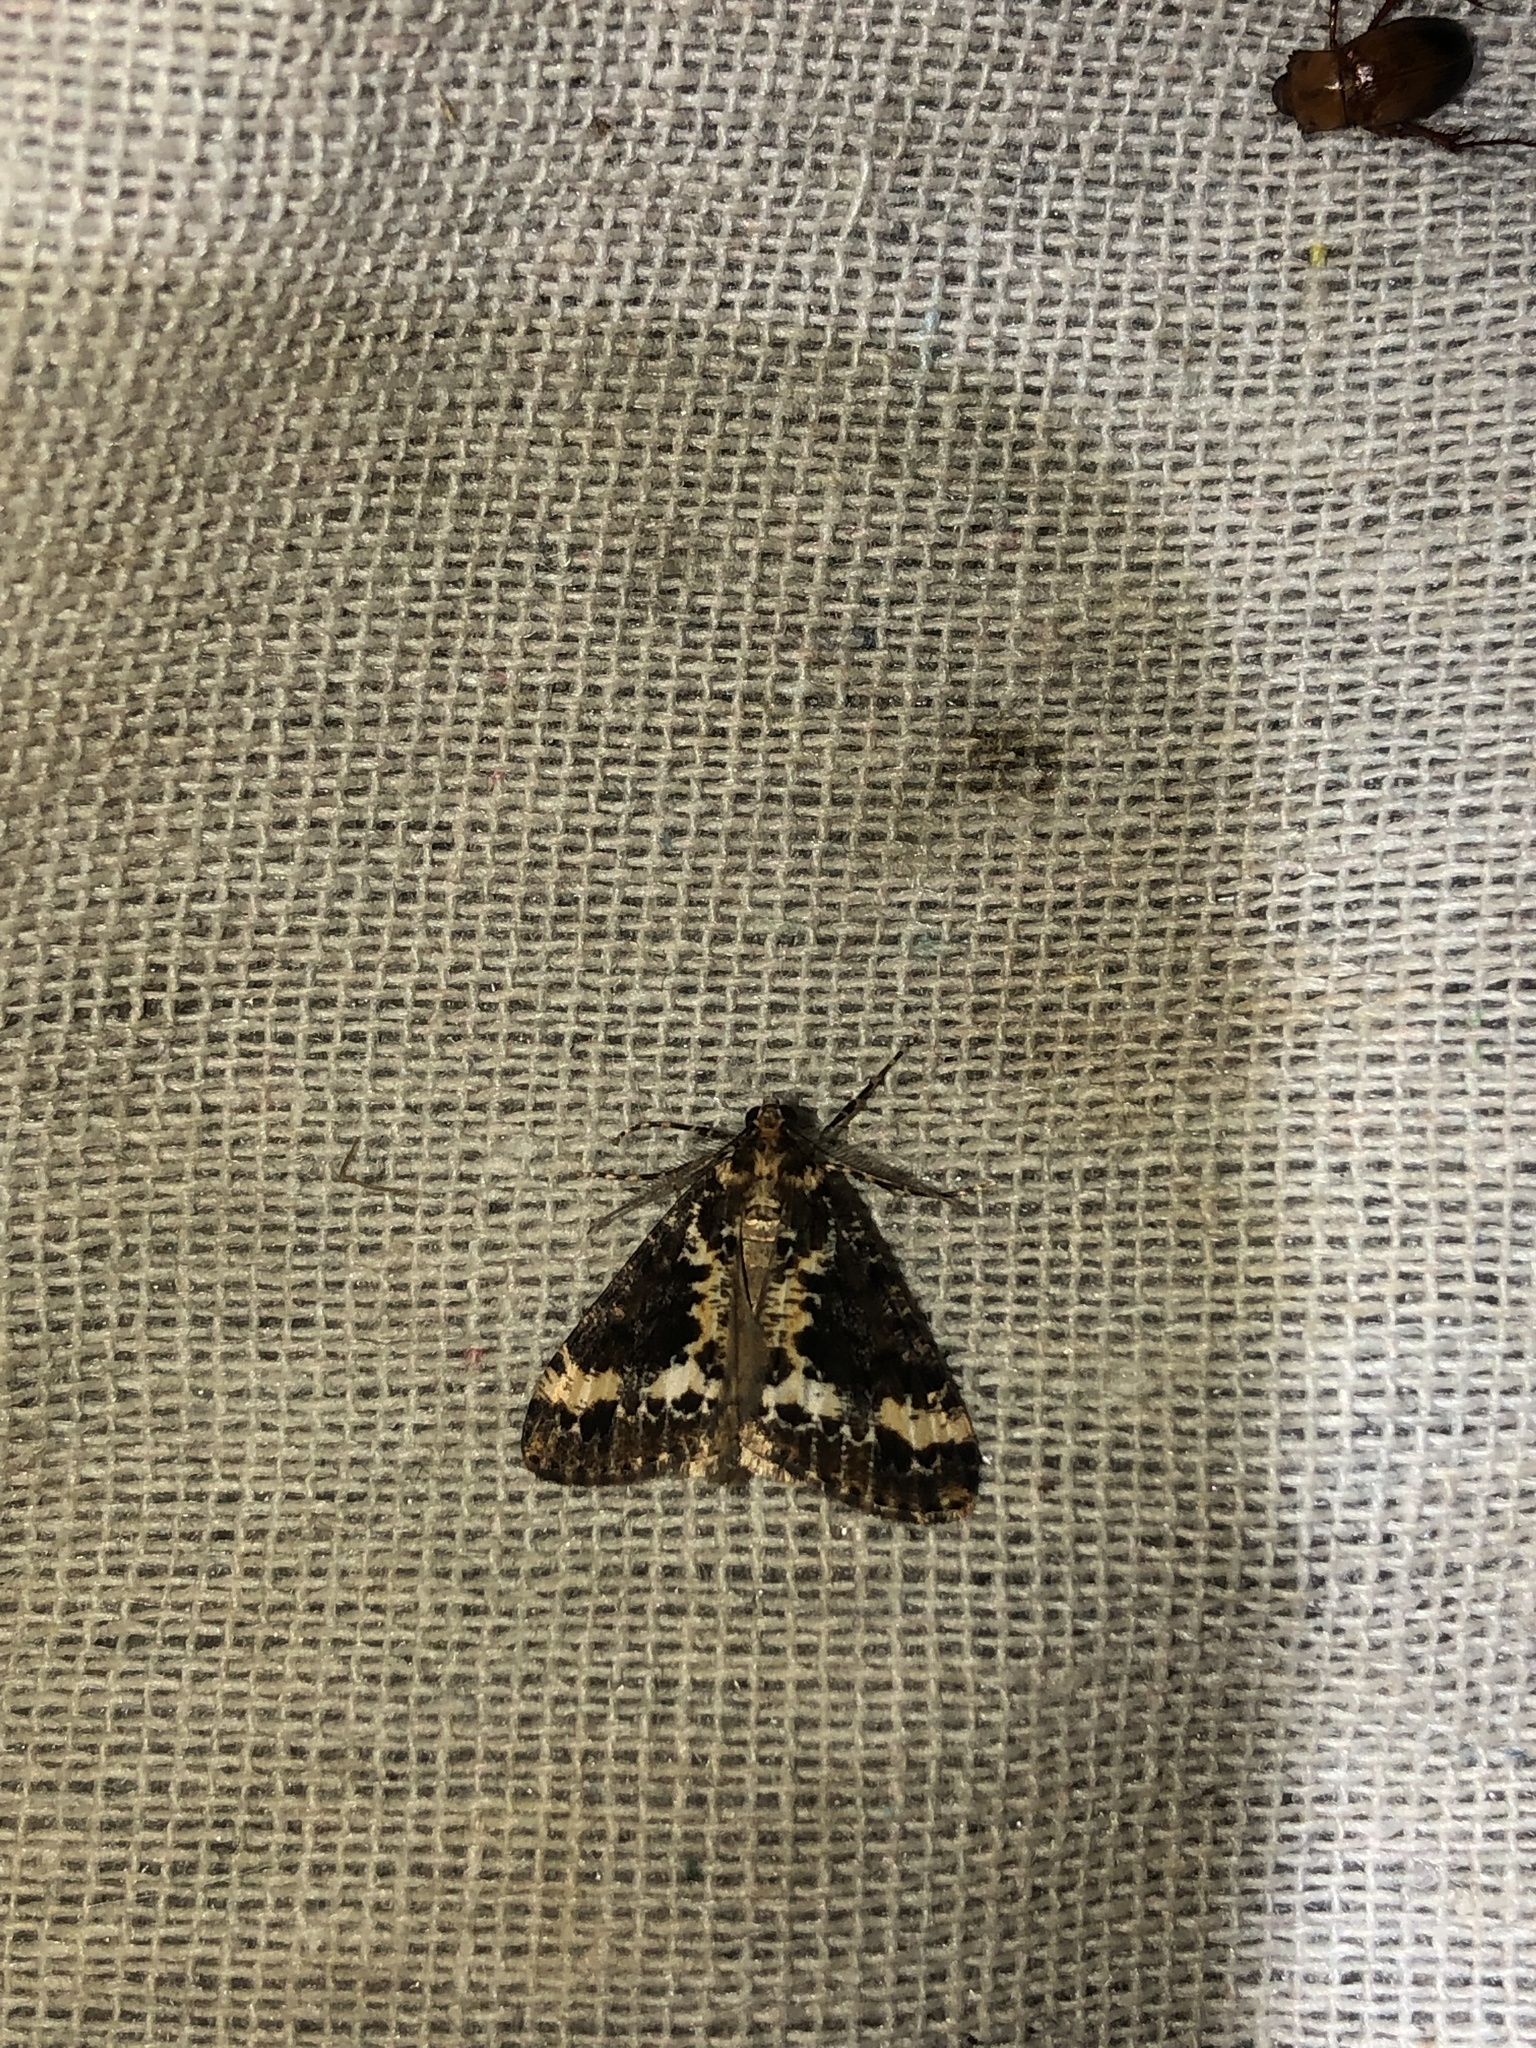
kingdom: Animalia
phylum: Arthropoda
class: Insecta
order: Lepidoptera
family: Geometridae
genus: Pseudocoremia
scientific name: Pseudocoremia leucelaea
